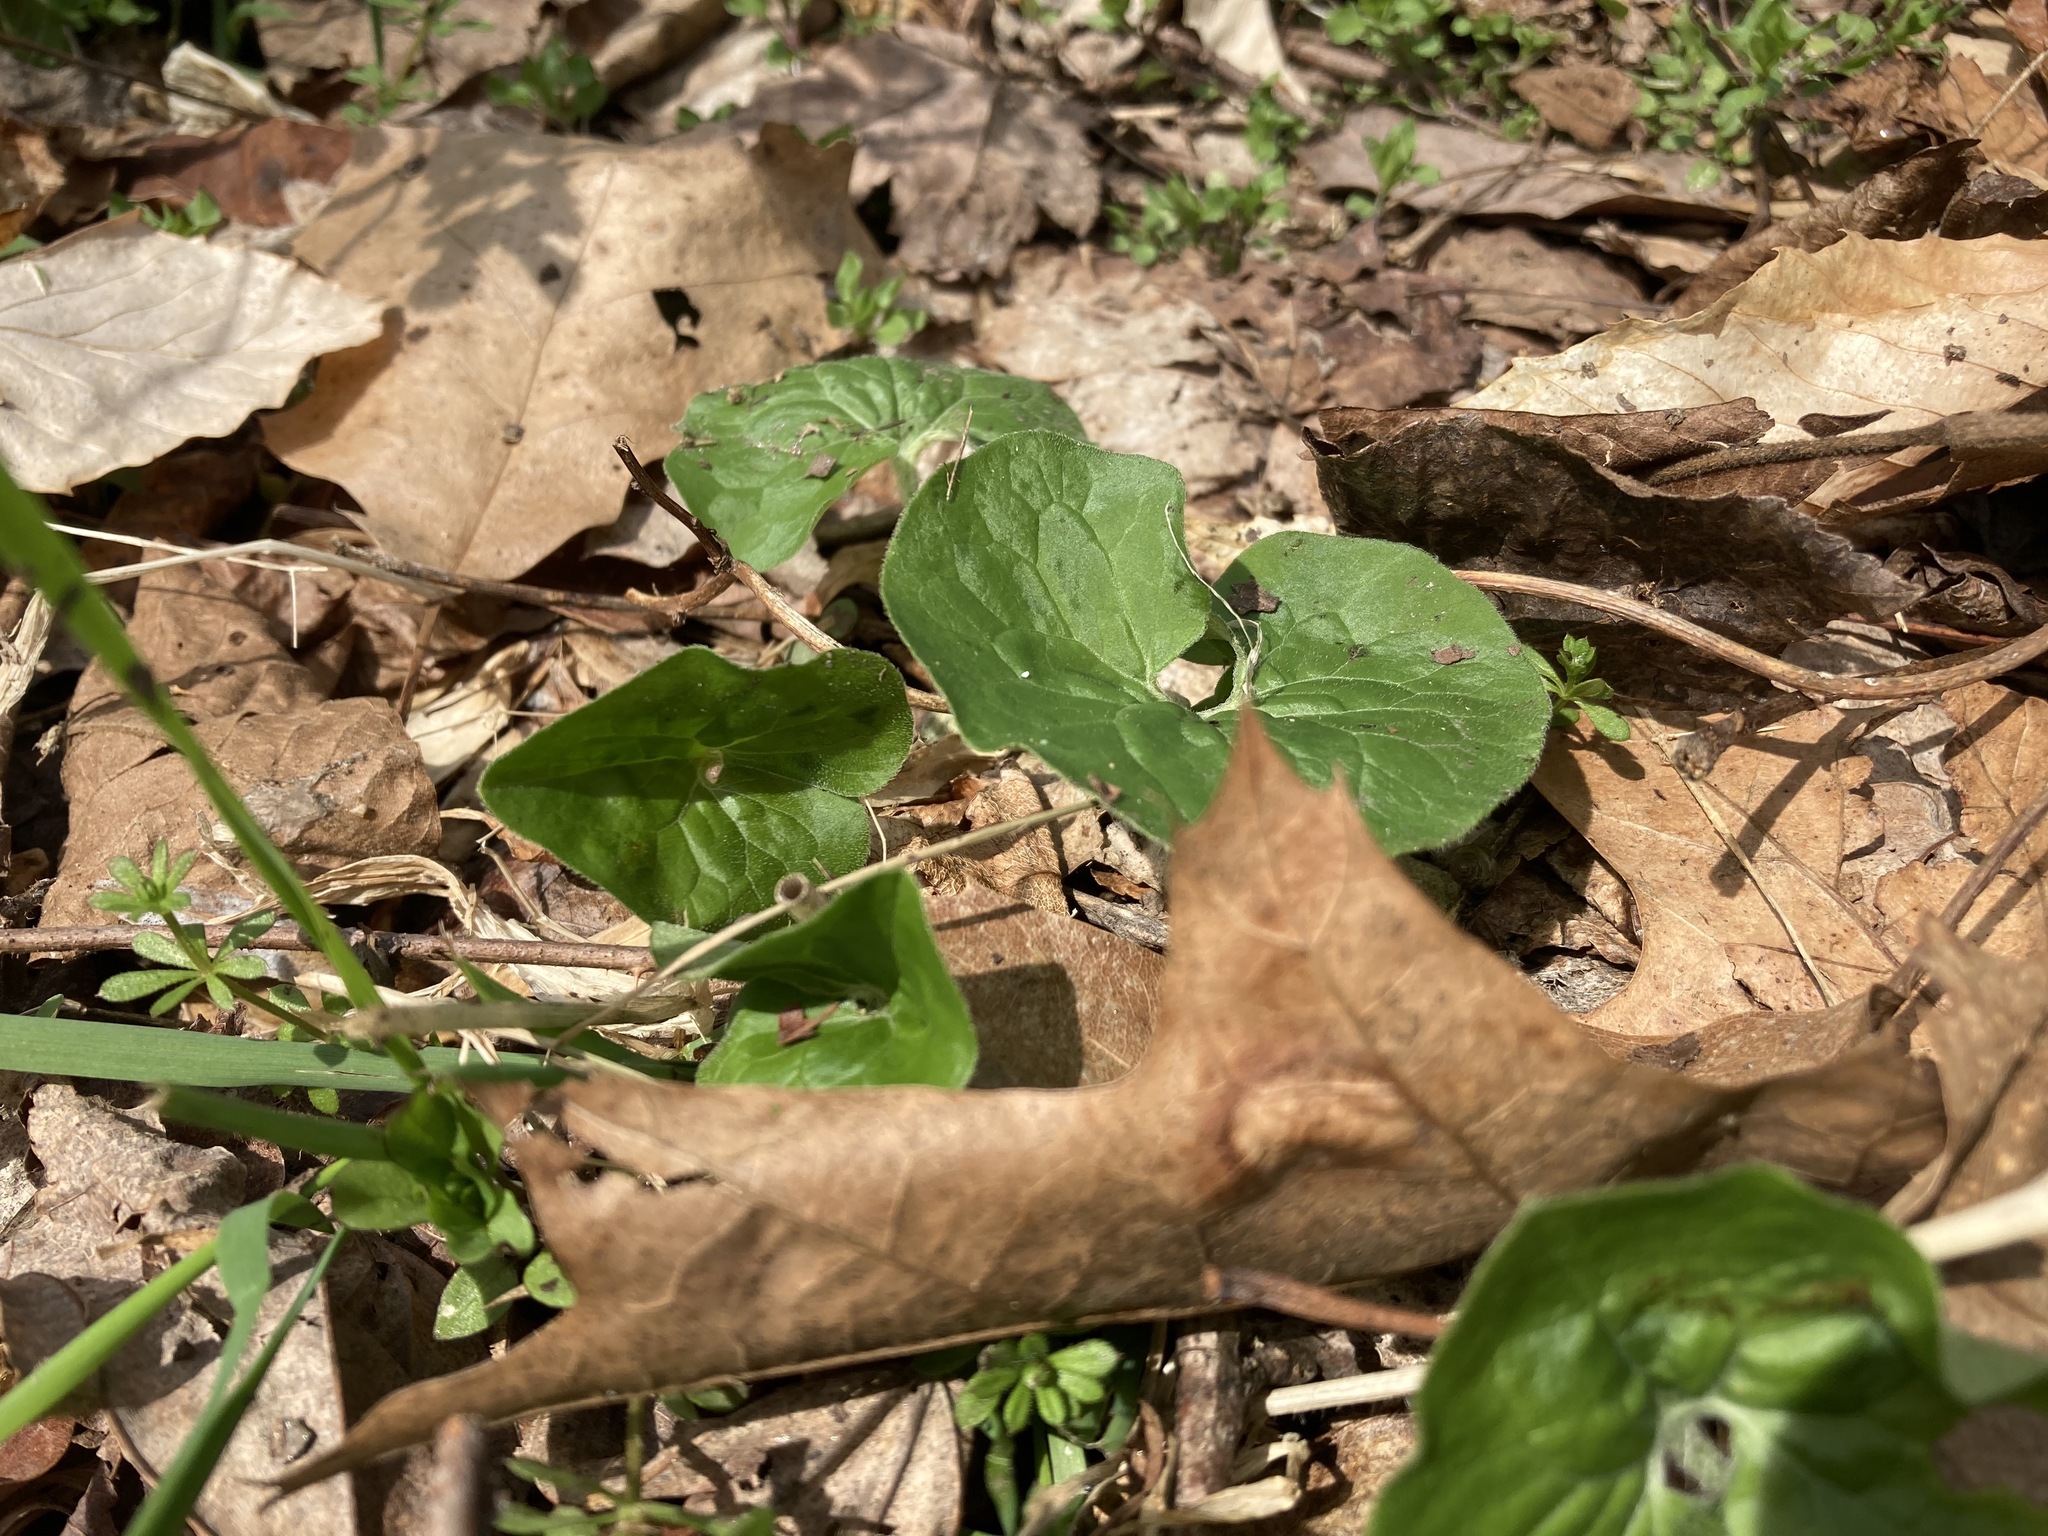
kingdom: Plantae
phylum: Tracheophyta
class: Magnoliopsida
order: Piperales
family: Aristolochiaceae
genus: Asarum
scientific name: Asarum canadense
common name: Wild ginger
